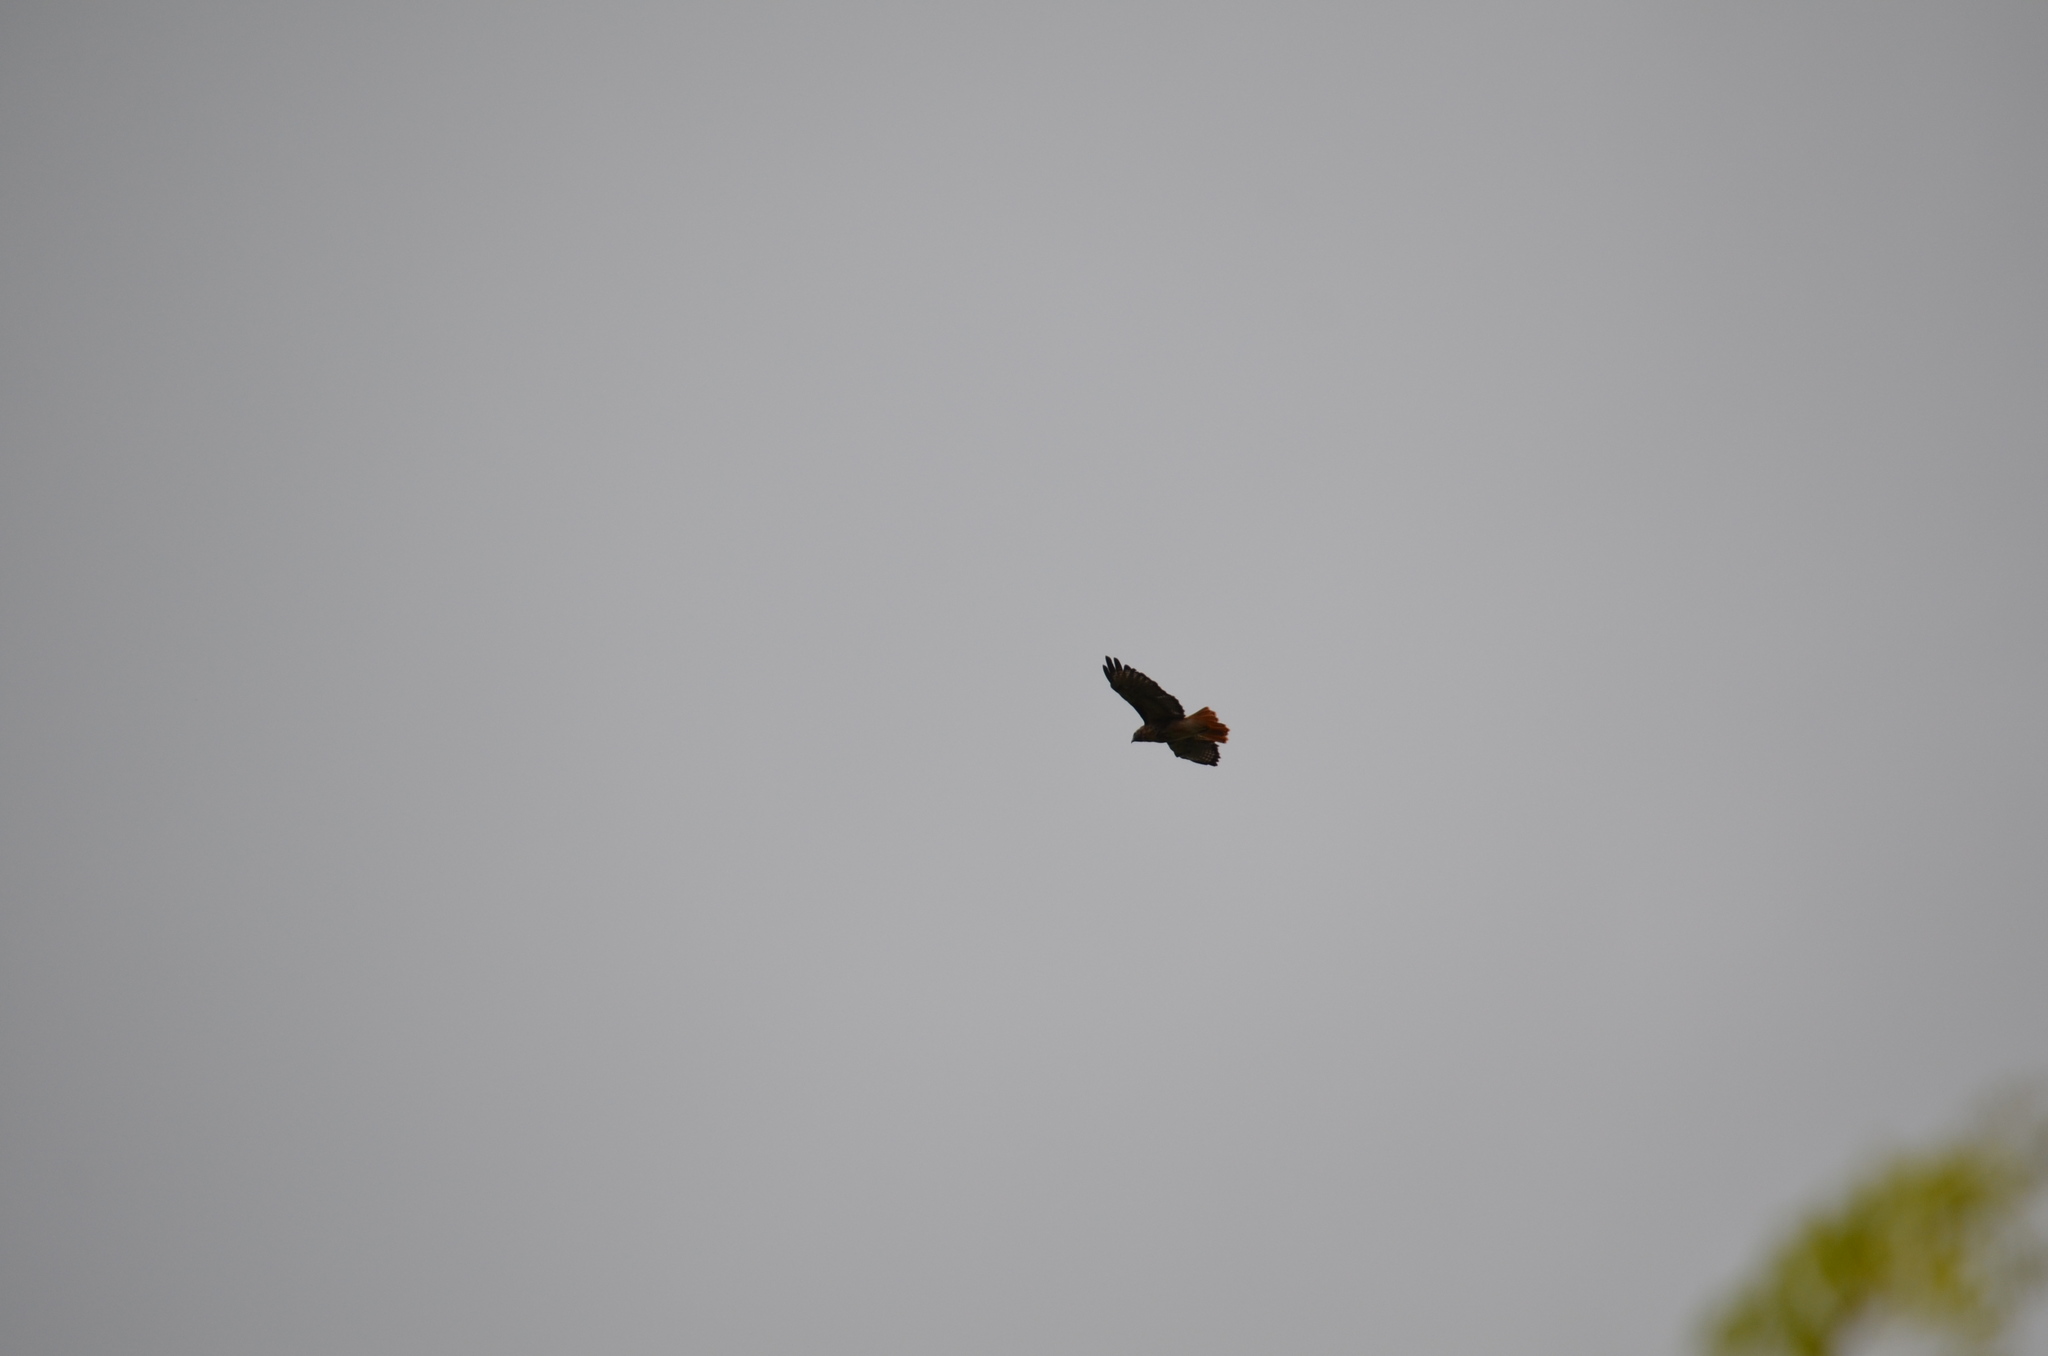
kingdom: Animalia
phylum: Chordata
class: Aves
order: Accipitriformes
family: Accipitridae
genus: Buteo
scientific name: Buteo jamaicensis
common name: Red-tailed hawk
